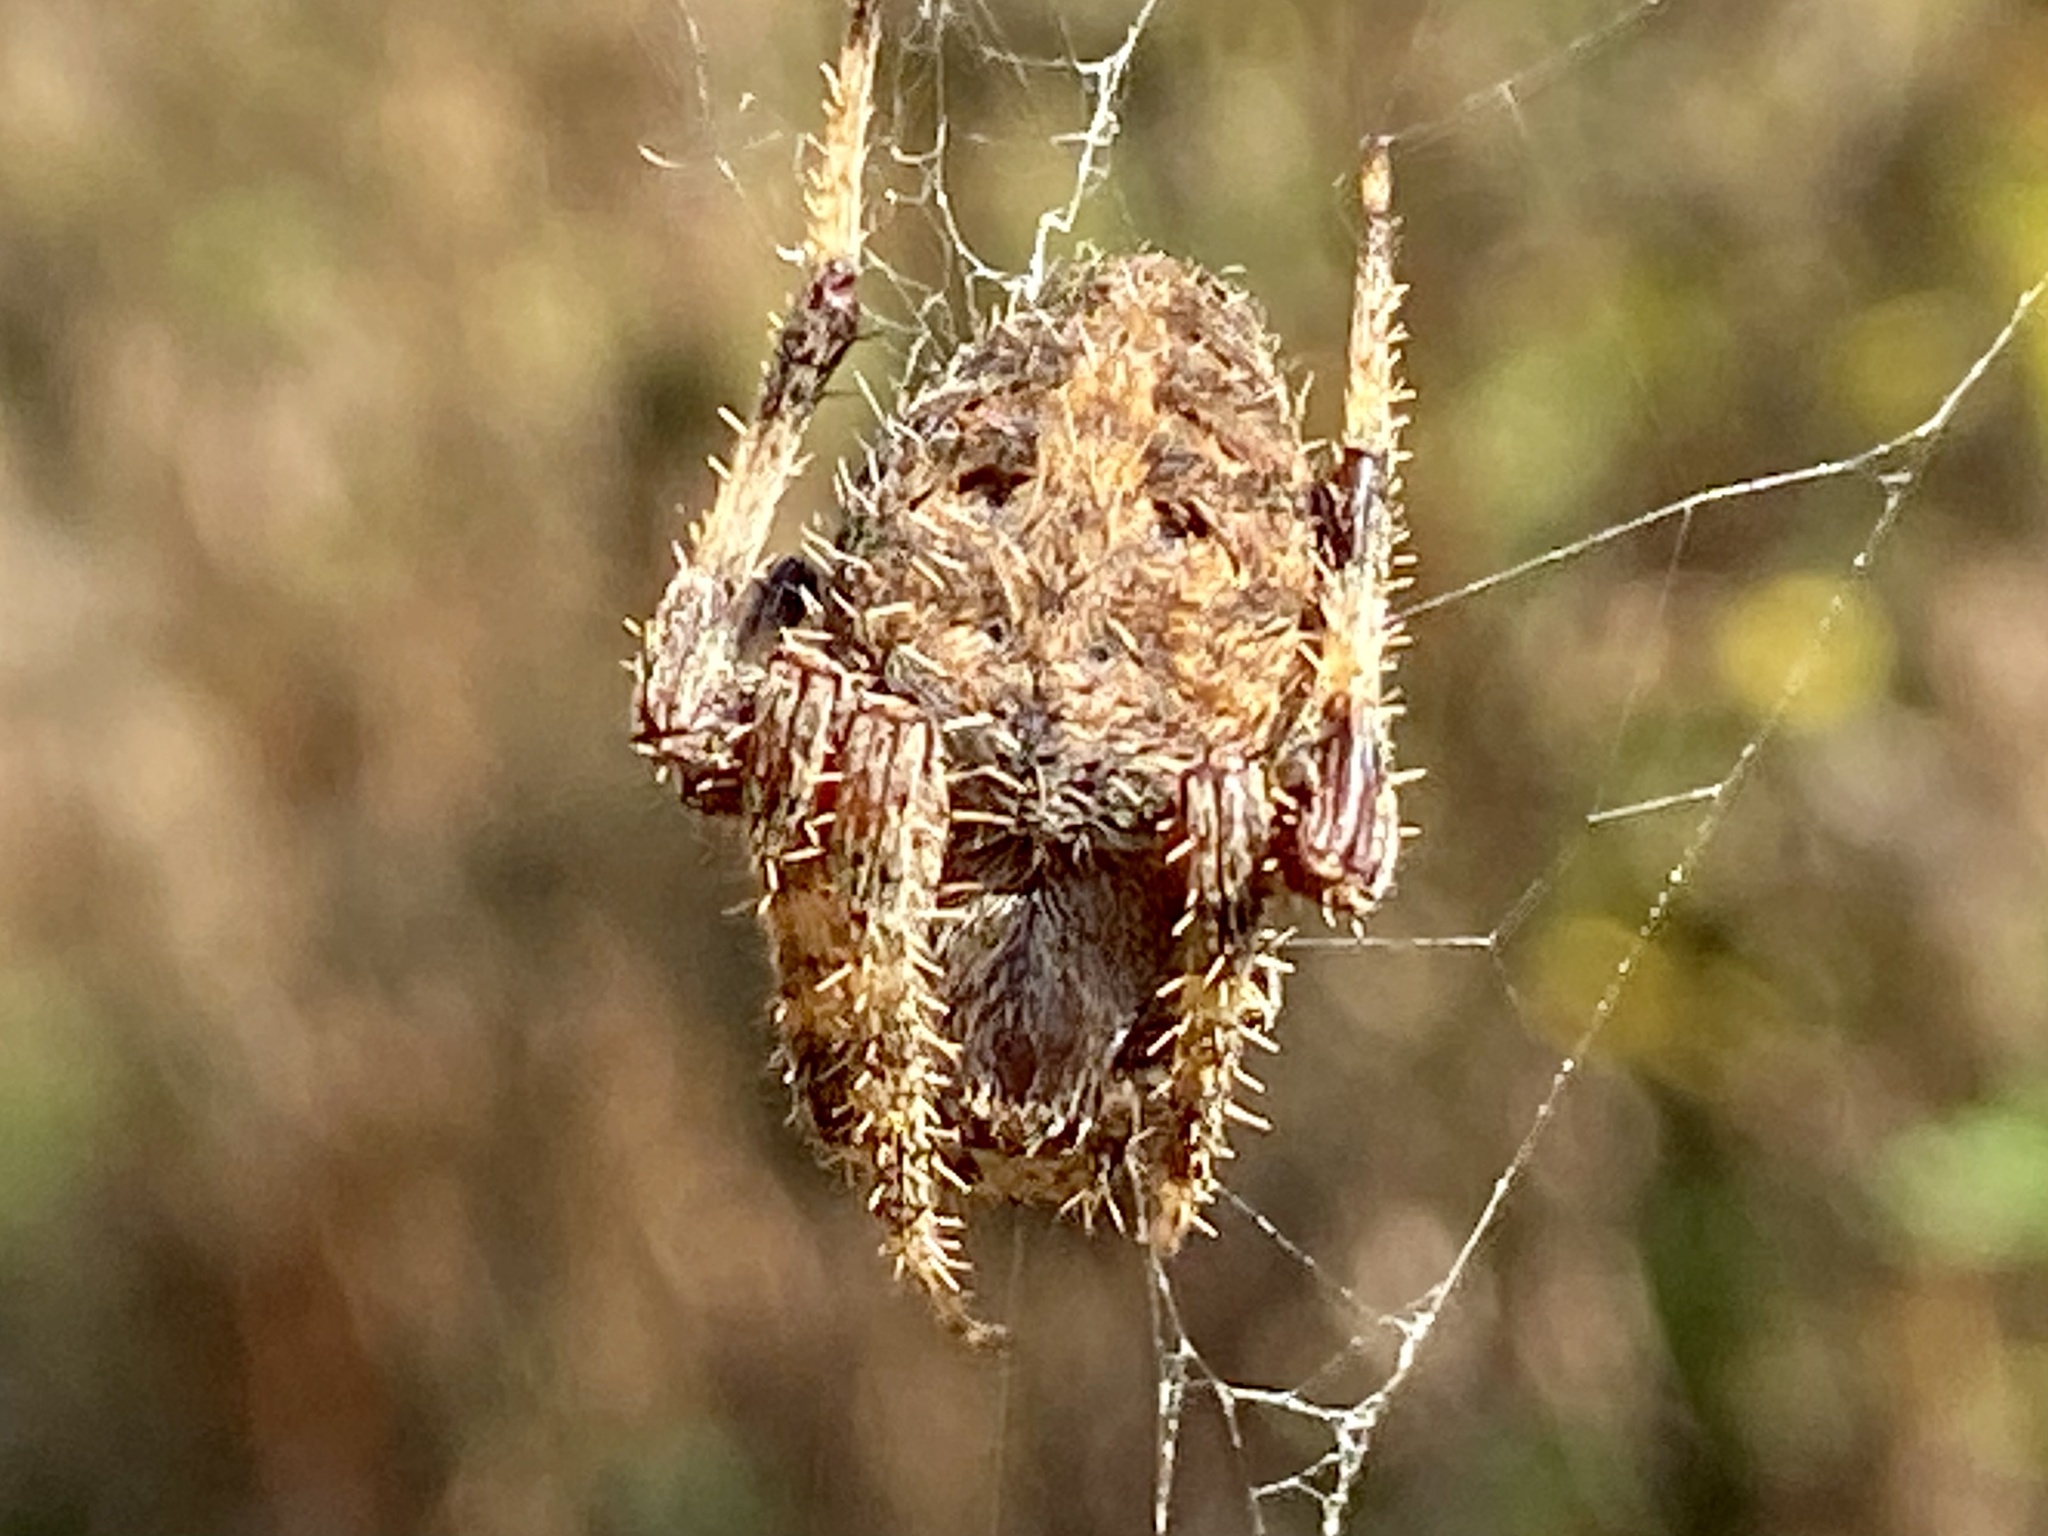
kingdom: Animalia
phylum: Arthropoda
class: Arachnida
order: Araneae
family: Araneidae
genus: Neoscona
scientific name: Neoscona crucifera
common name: Spotted orbweaver
